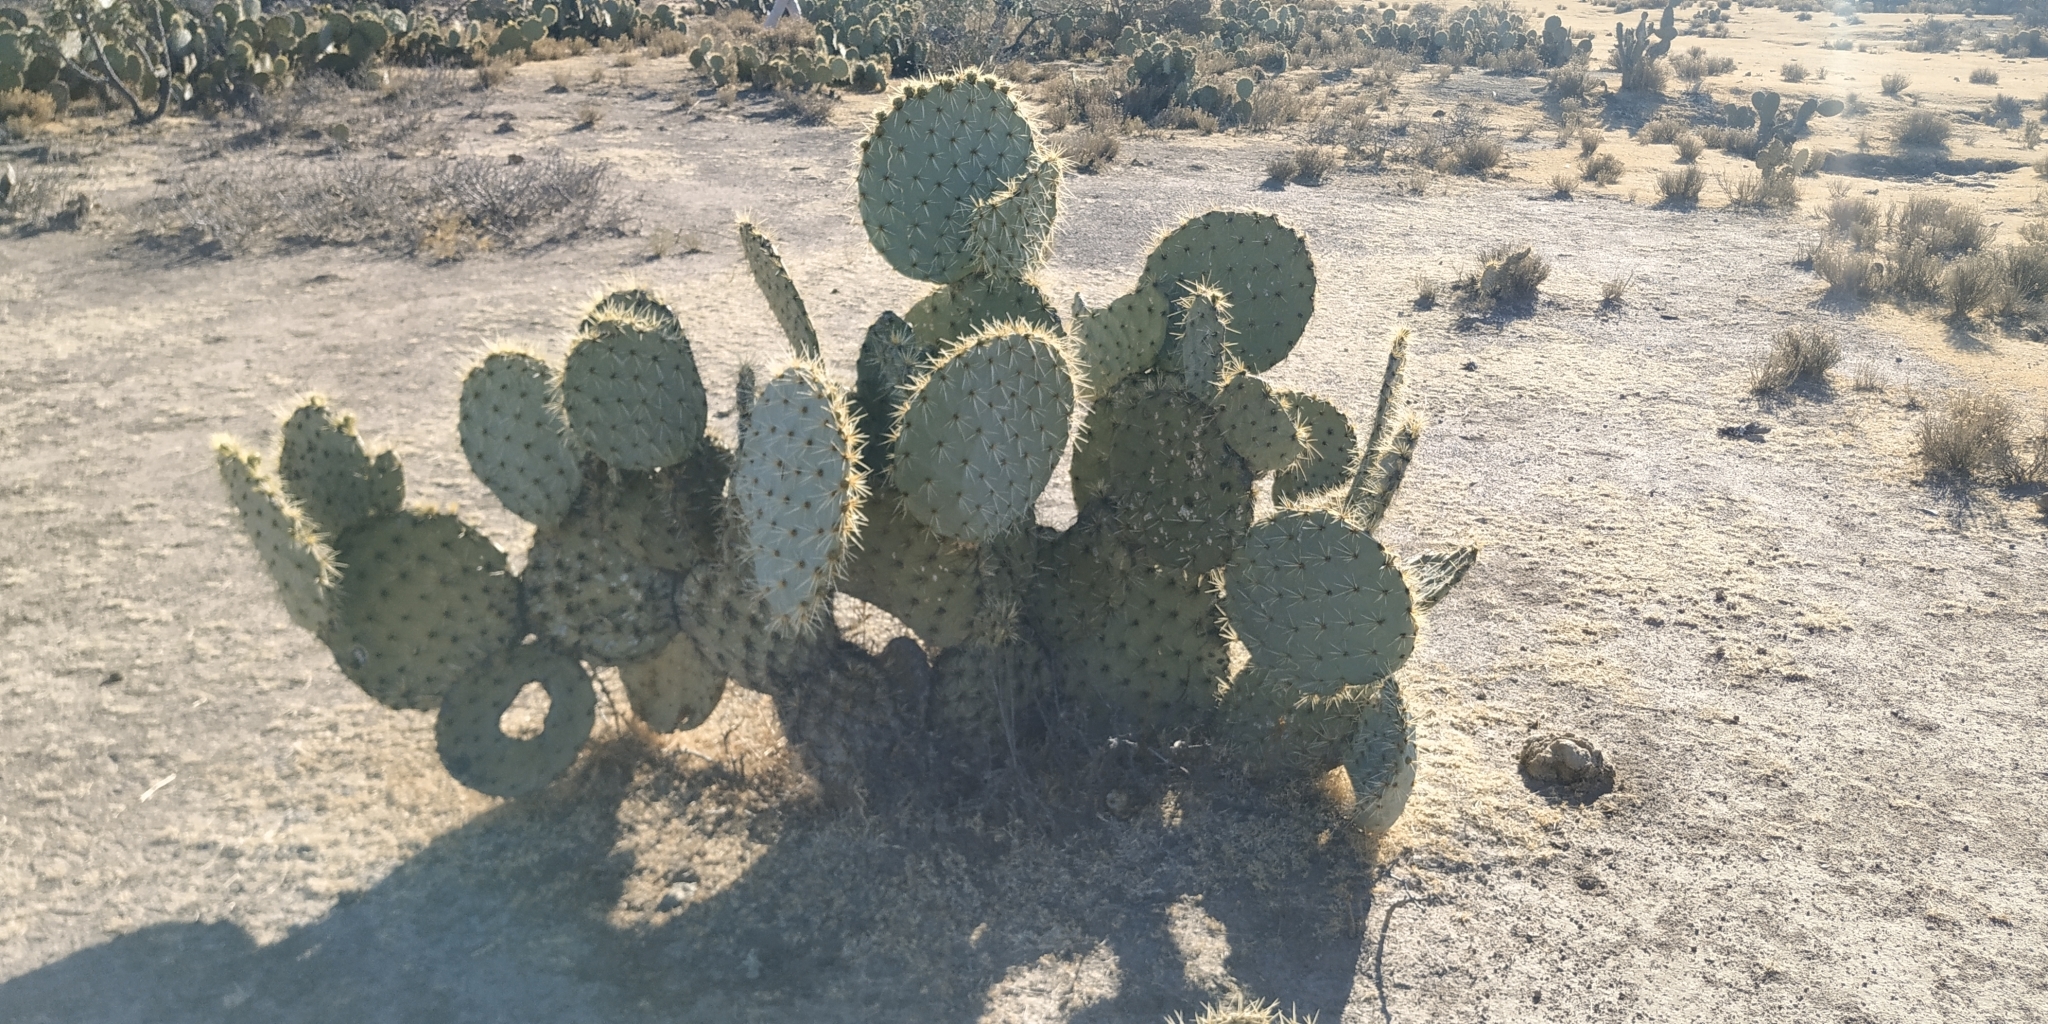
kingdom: Plantae
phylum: Tracheophyta
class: Magnoliopsida
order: Caryophyllales
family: Cactaceae
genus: Opuntia
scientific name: Opuntia robusta
